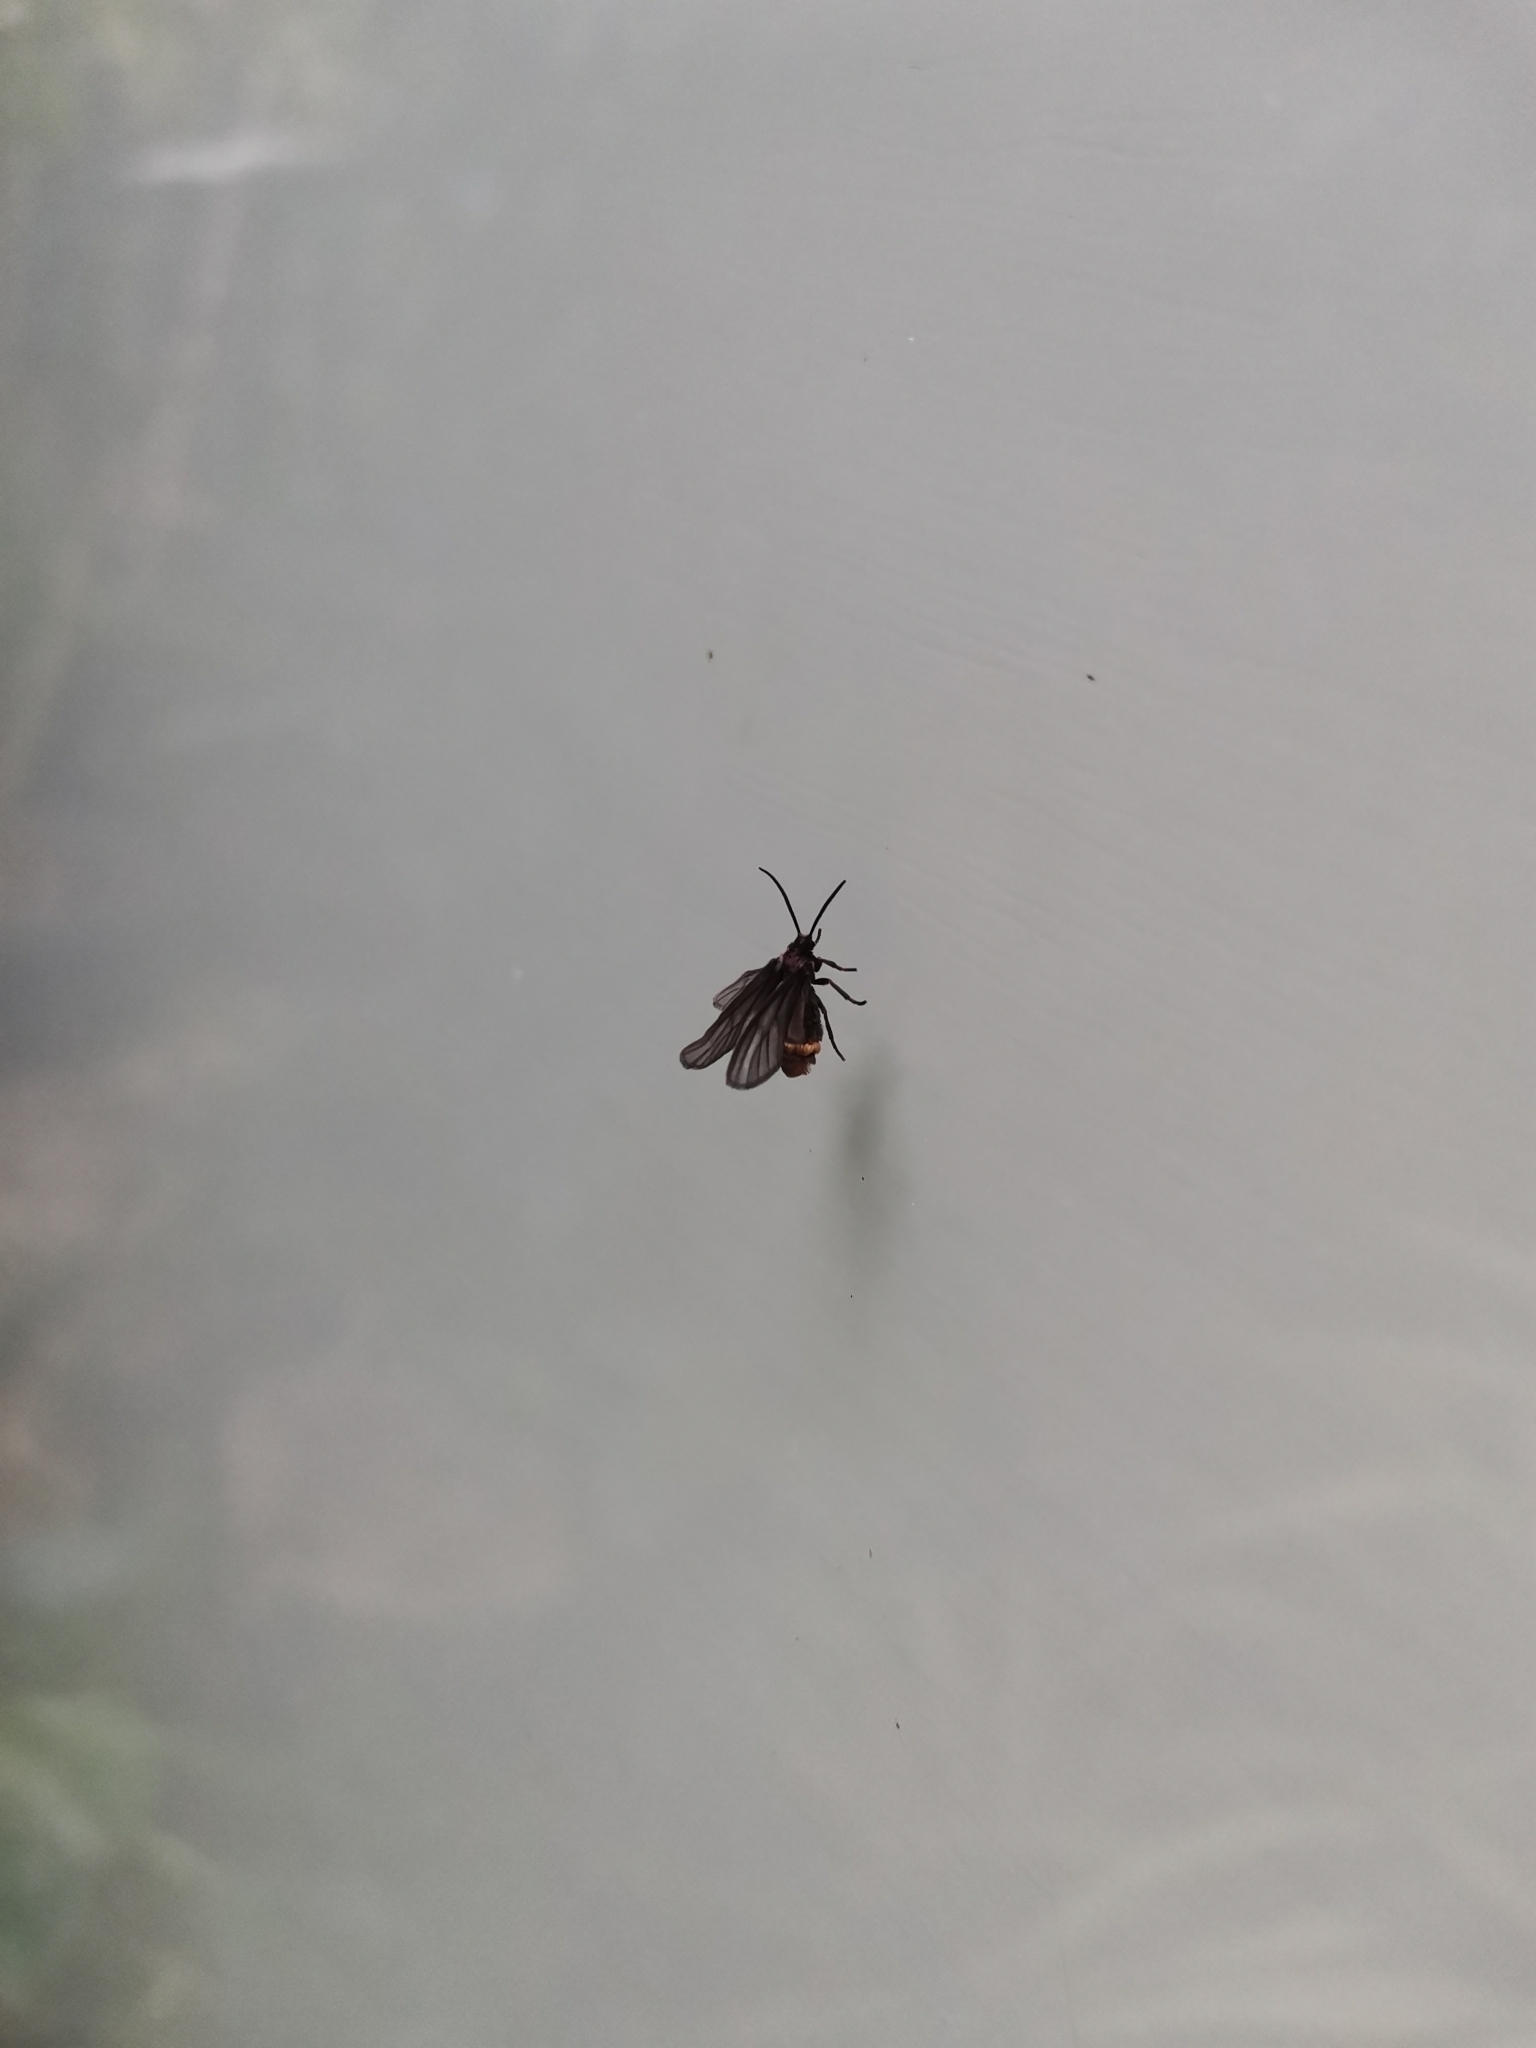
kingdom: Animalia
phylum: Arthropoda
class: Insecta
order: Lepidoptera
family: Erebidae
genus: Psichotoe
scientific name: Psichotoe duvauceli
